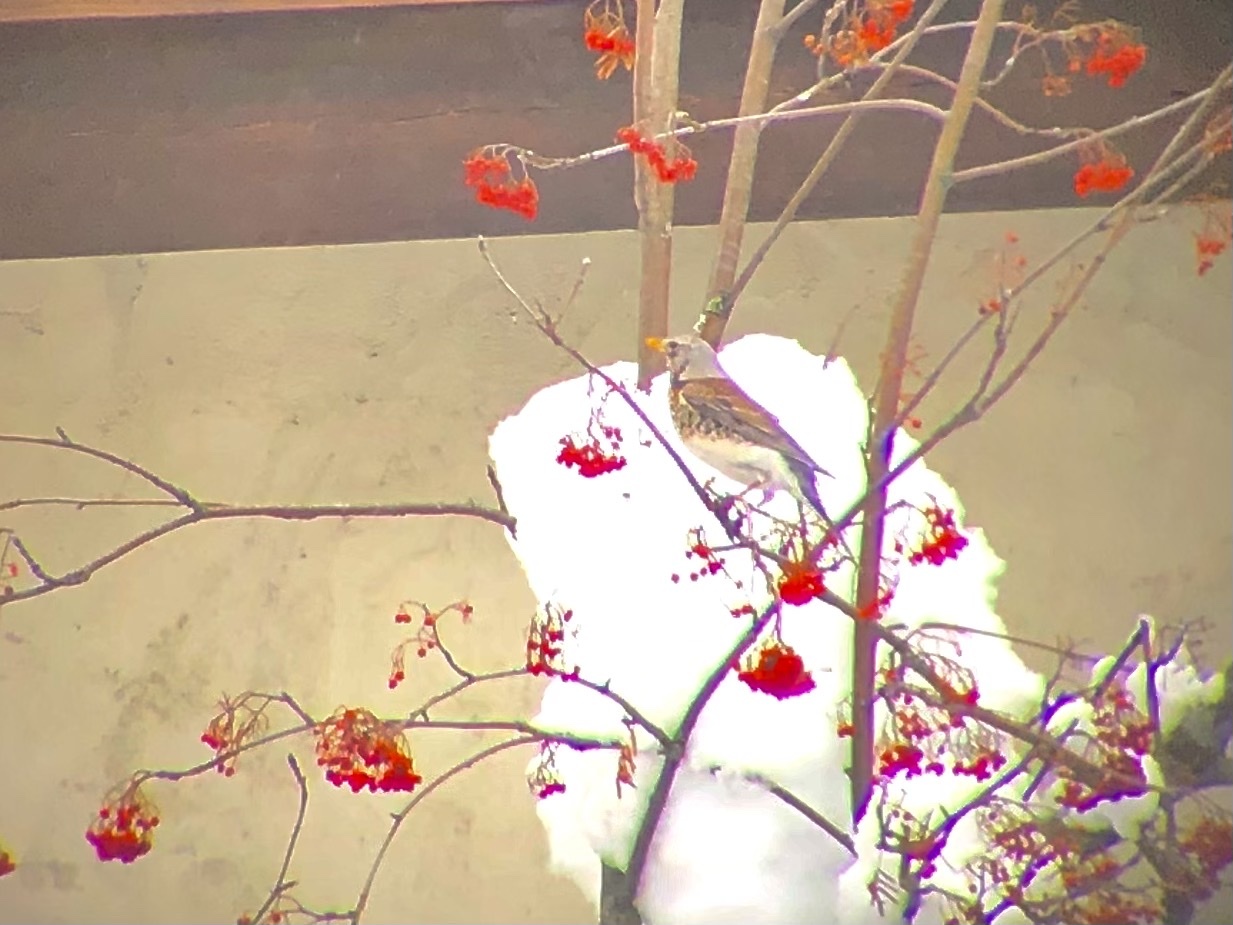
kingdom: Animalia
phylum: Chordata
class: Aves
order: Passeriformes
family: Turdidae
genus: Turdus
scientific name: Turdus pilaris
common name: Fieldfare
